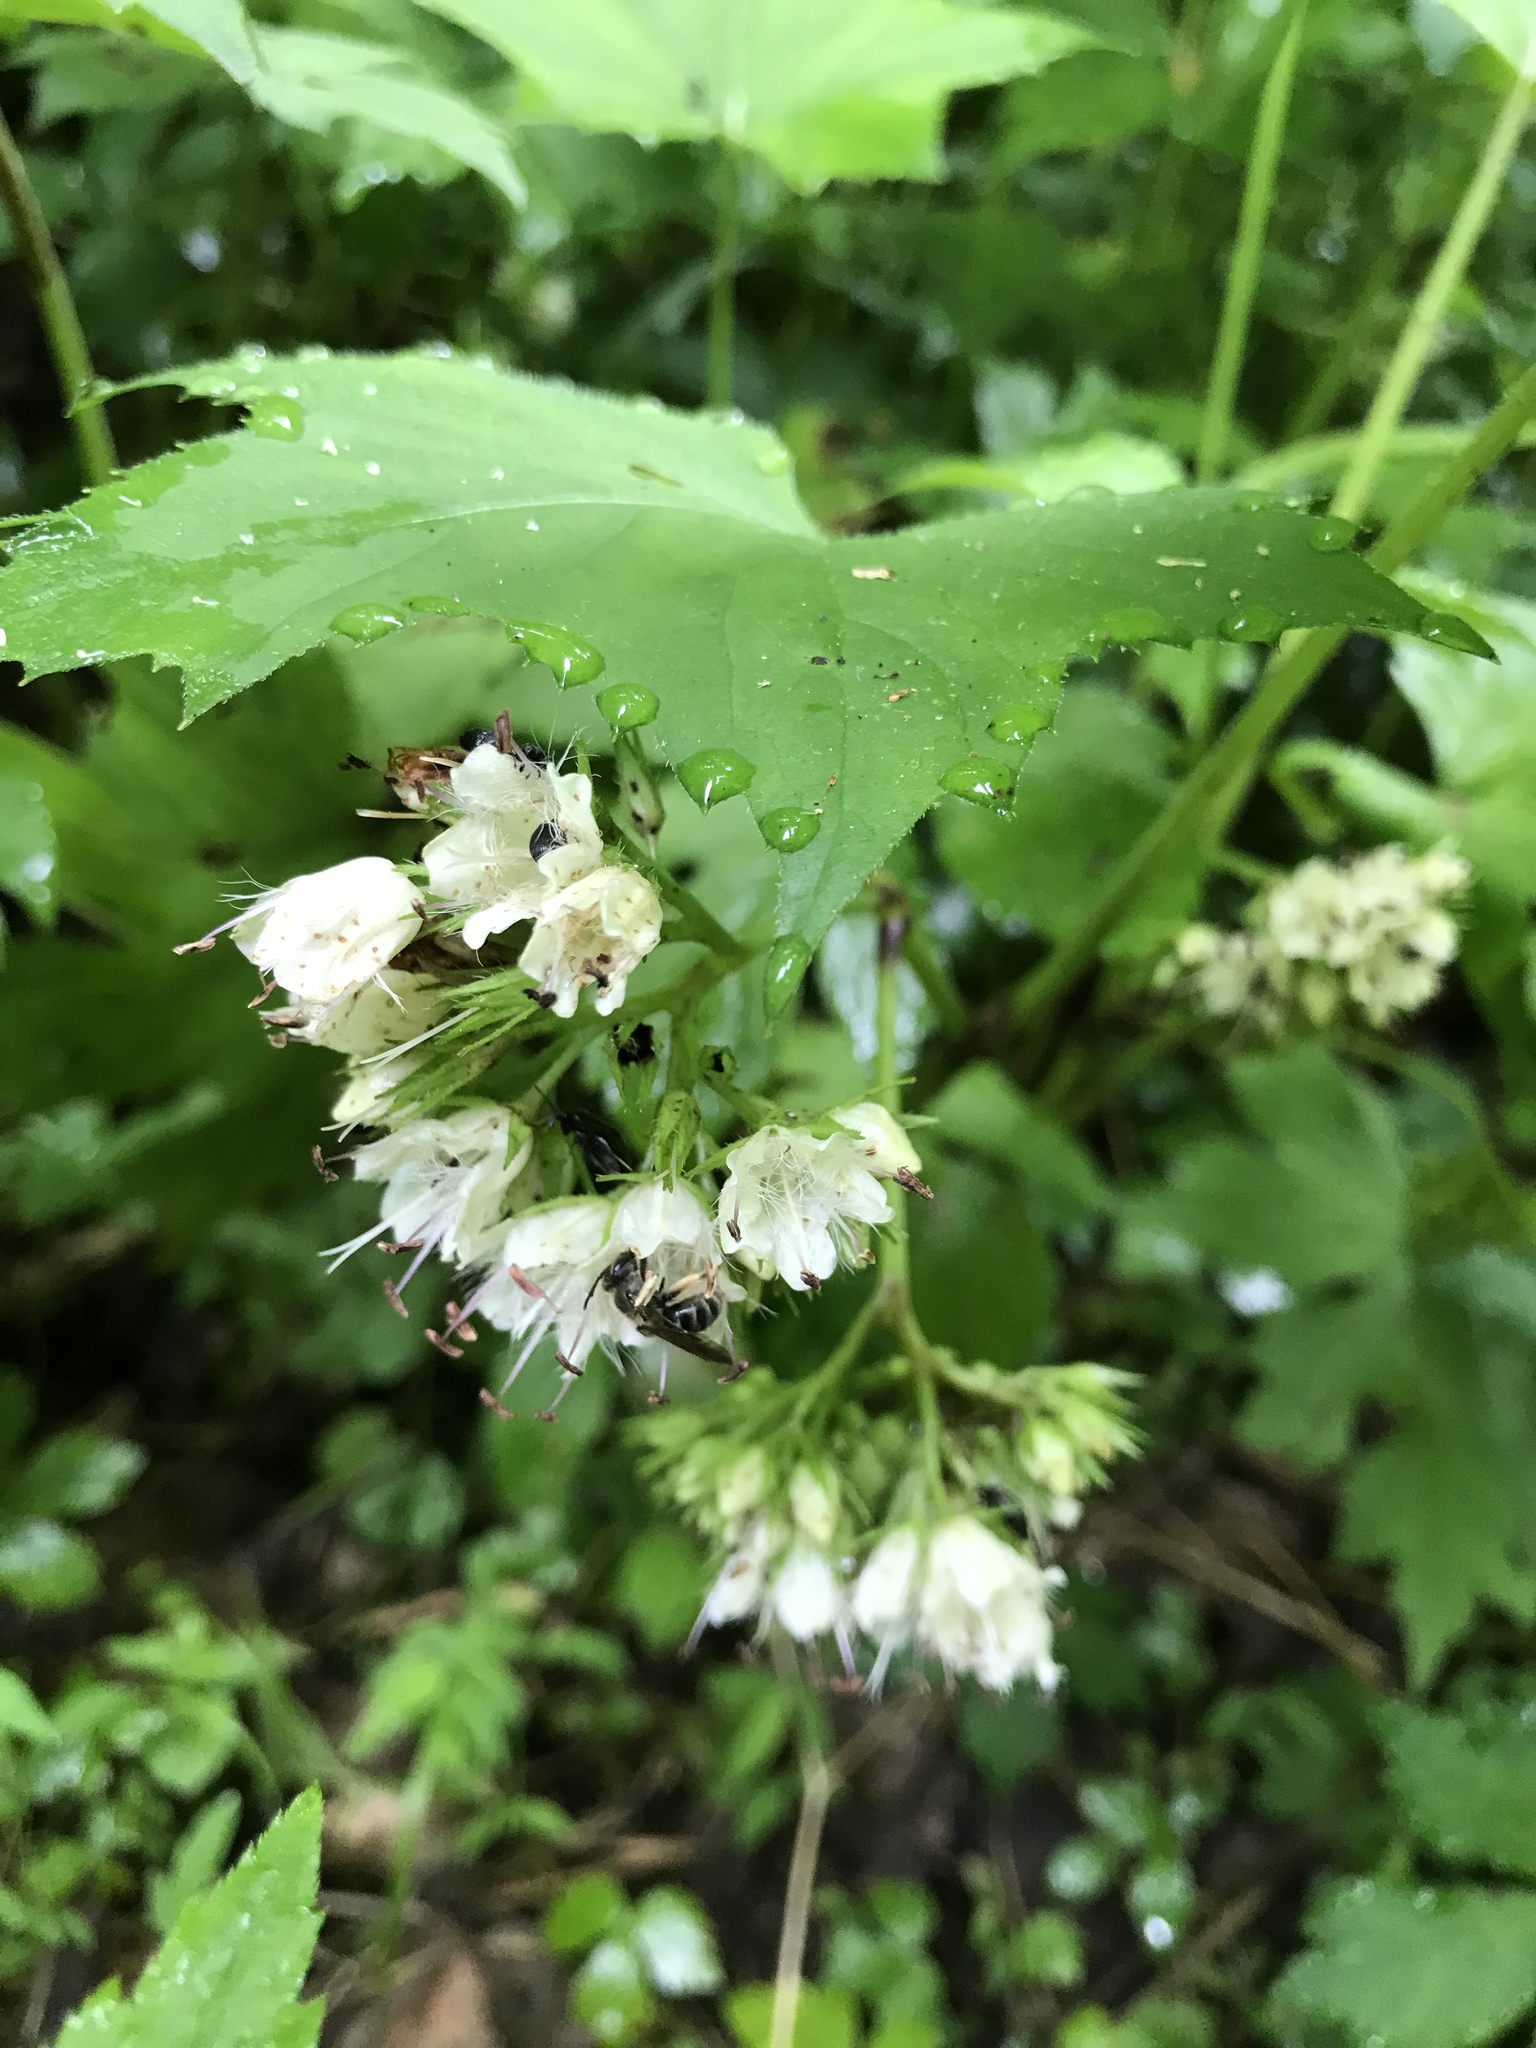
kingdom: Plantae
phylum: Tracheophyta
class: Magnoliopsida
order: Boraginales
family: Hydrophyllaceae
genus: Hydrophyllum
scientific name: Hydrophyllum canadense
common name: Canada waterleaf
